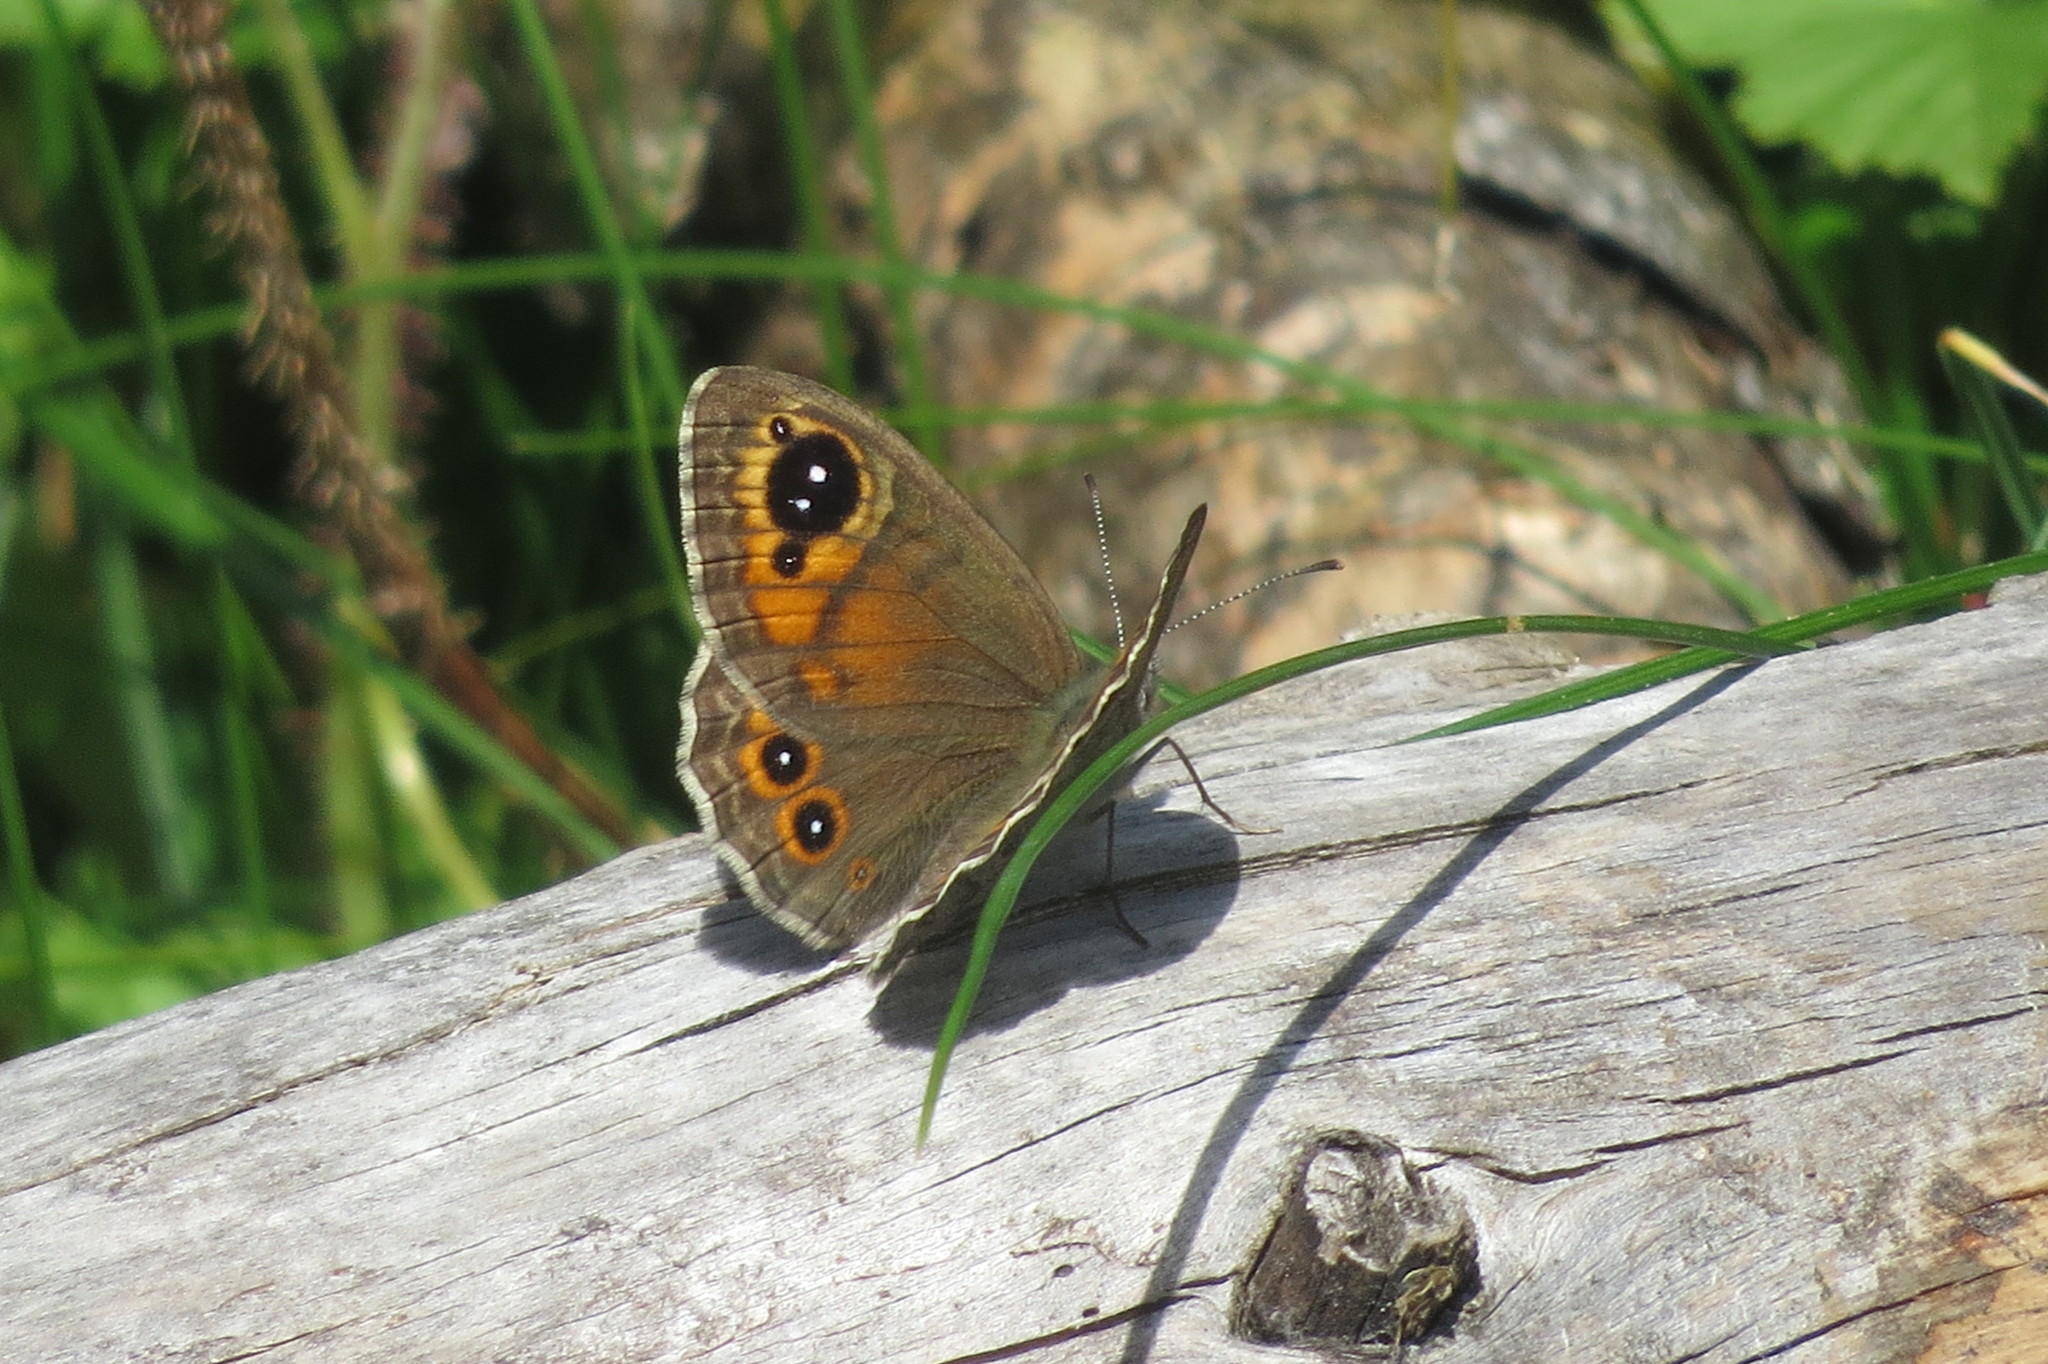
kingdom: Animalia
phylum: Arthropoda
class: Insecta
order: Lepidoptera
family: Nymphalidae
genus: Pararge
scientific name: Pararge Lasiommata maera
